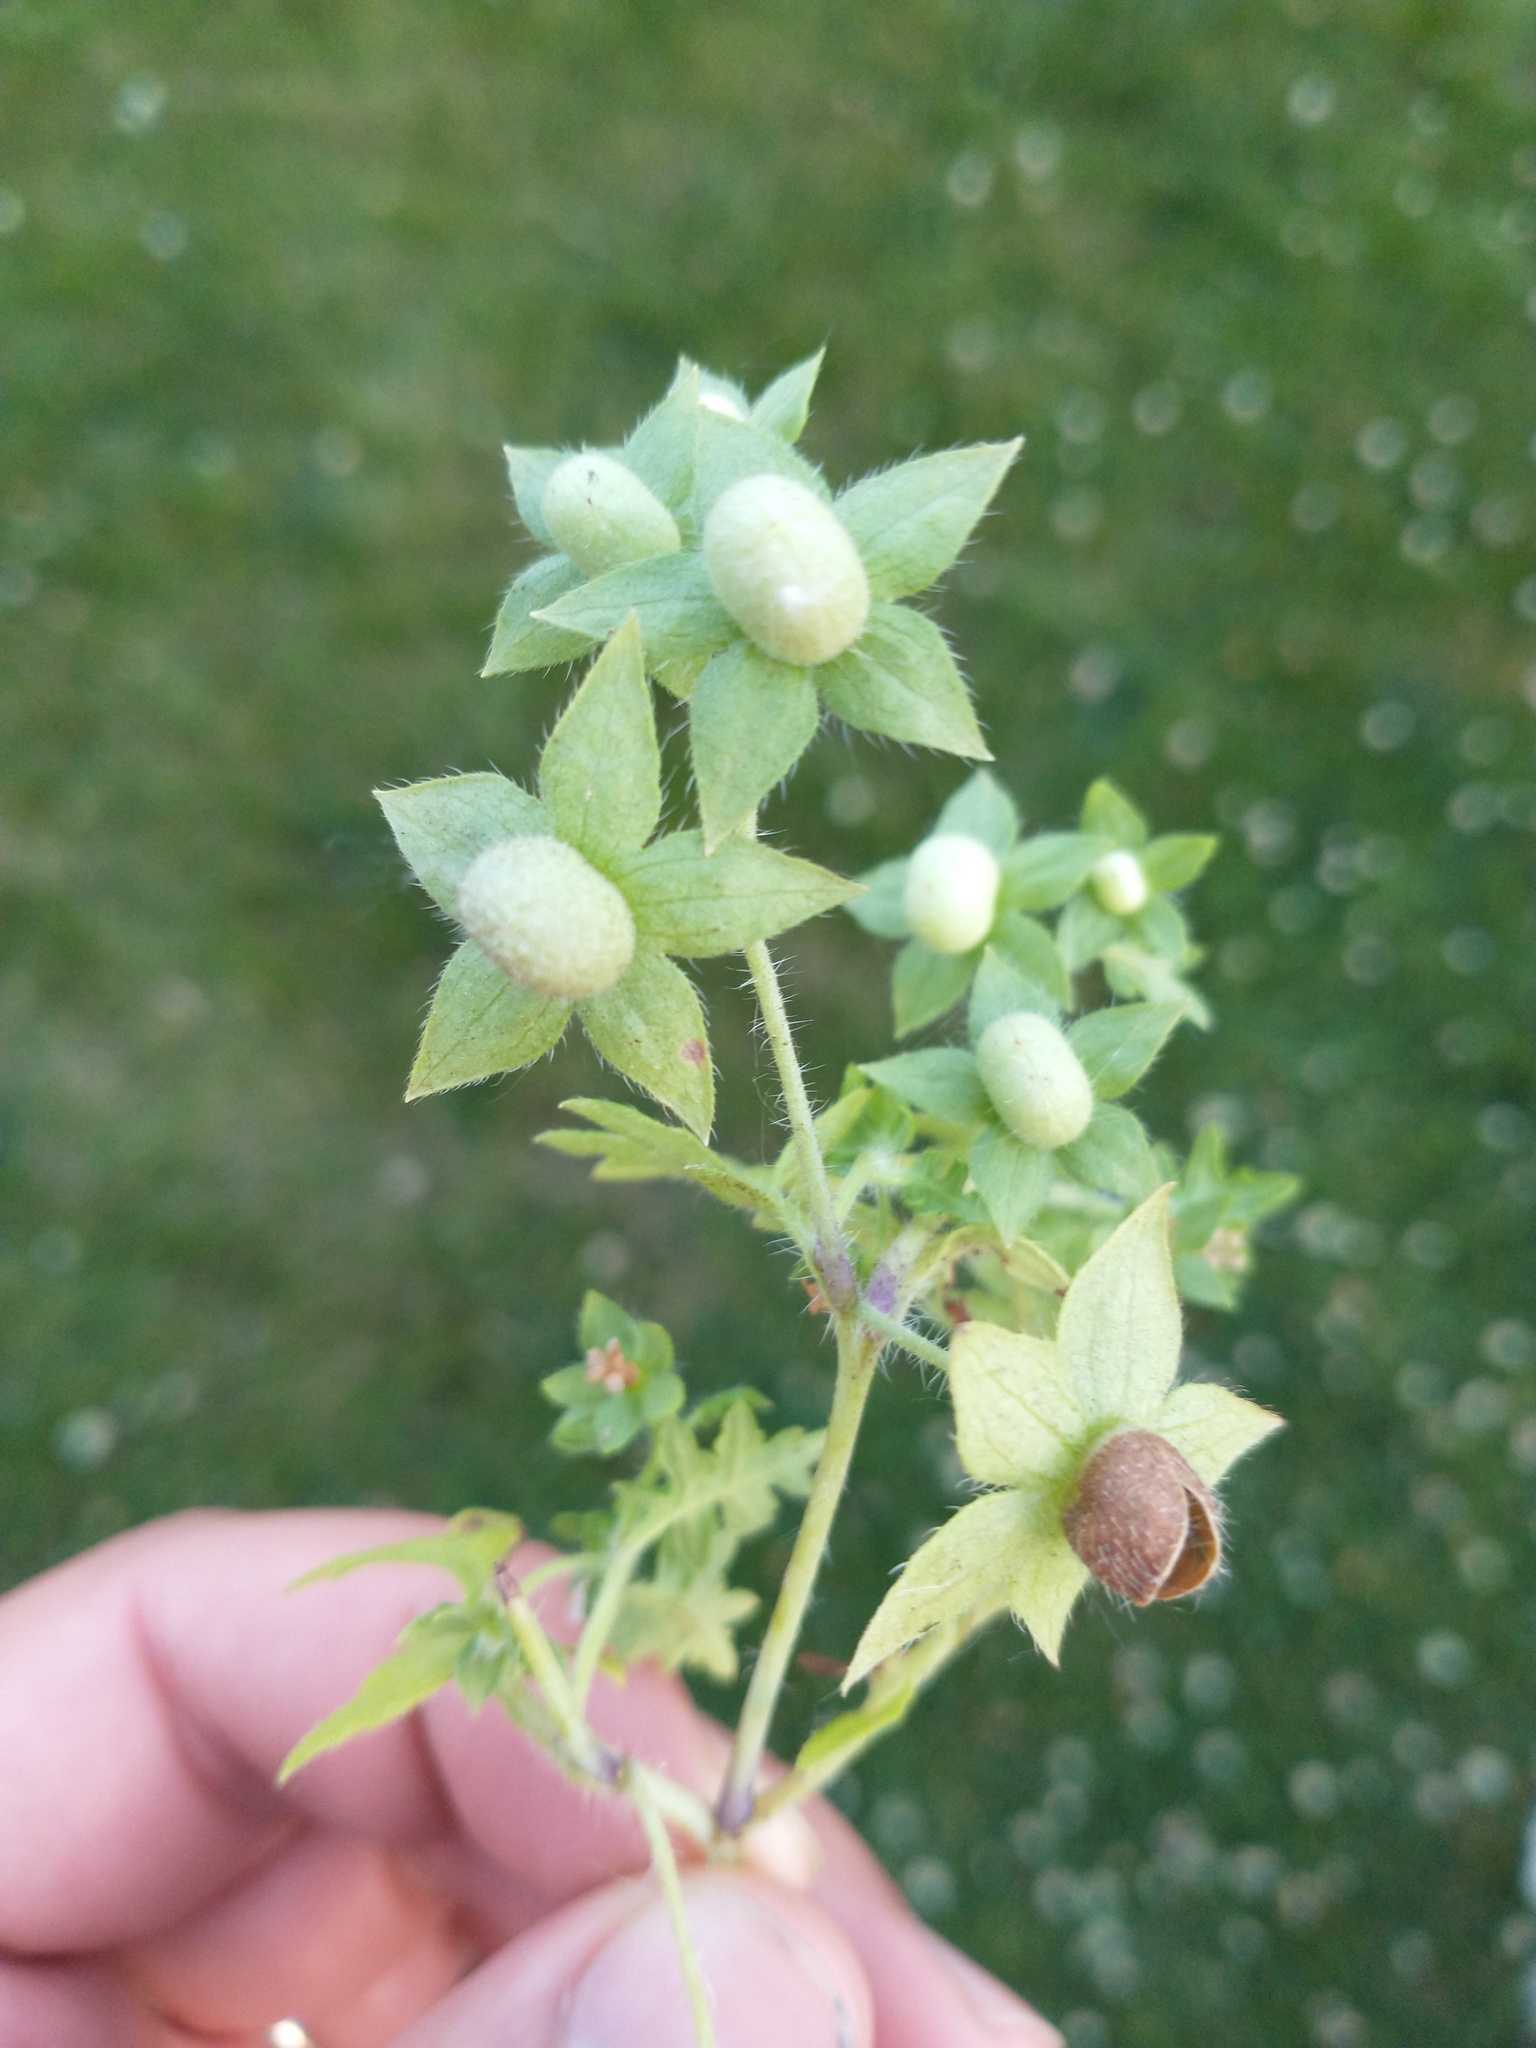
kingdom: Plantae
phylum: Tracheophyta
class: Magnoliopsida
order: Boraginales
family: Hydrophyllaceae
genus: Ellisia
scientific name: Ellisia nyctelea
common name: Aunt lucy
